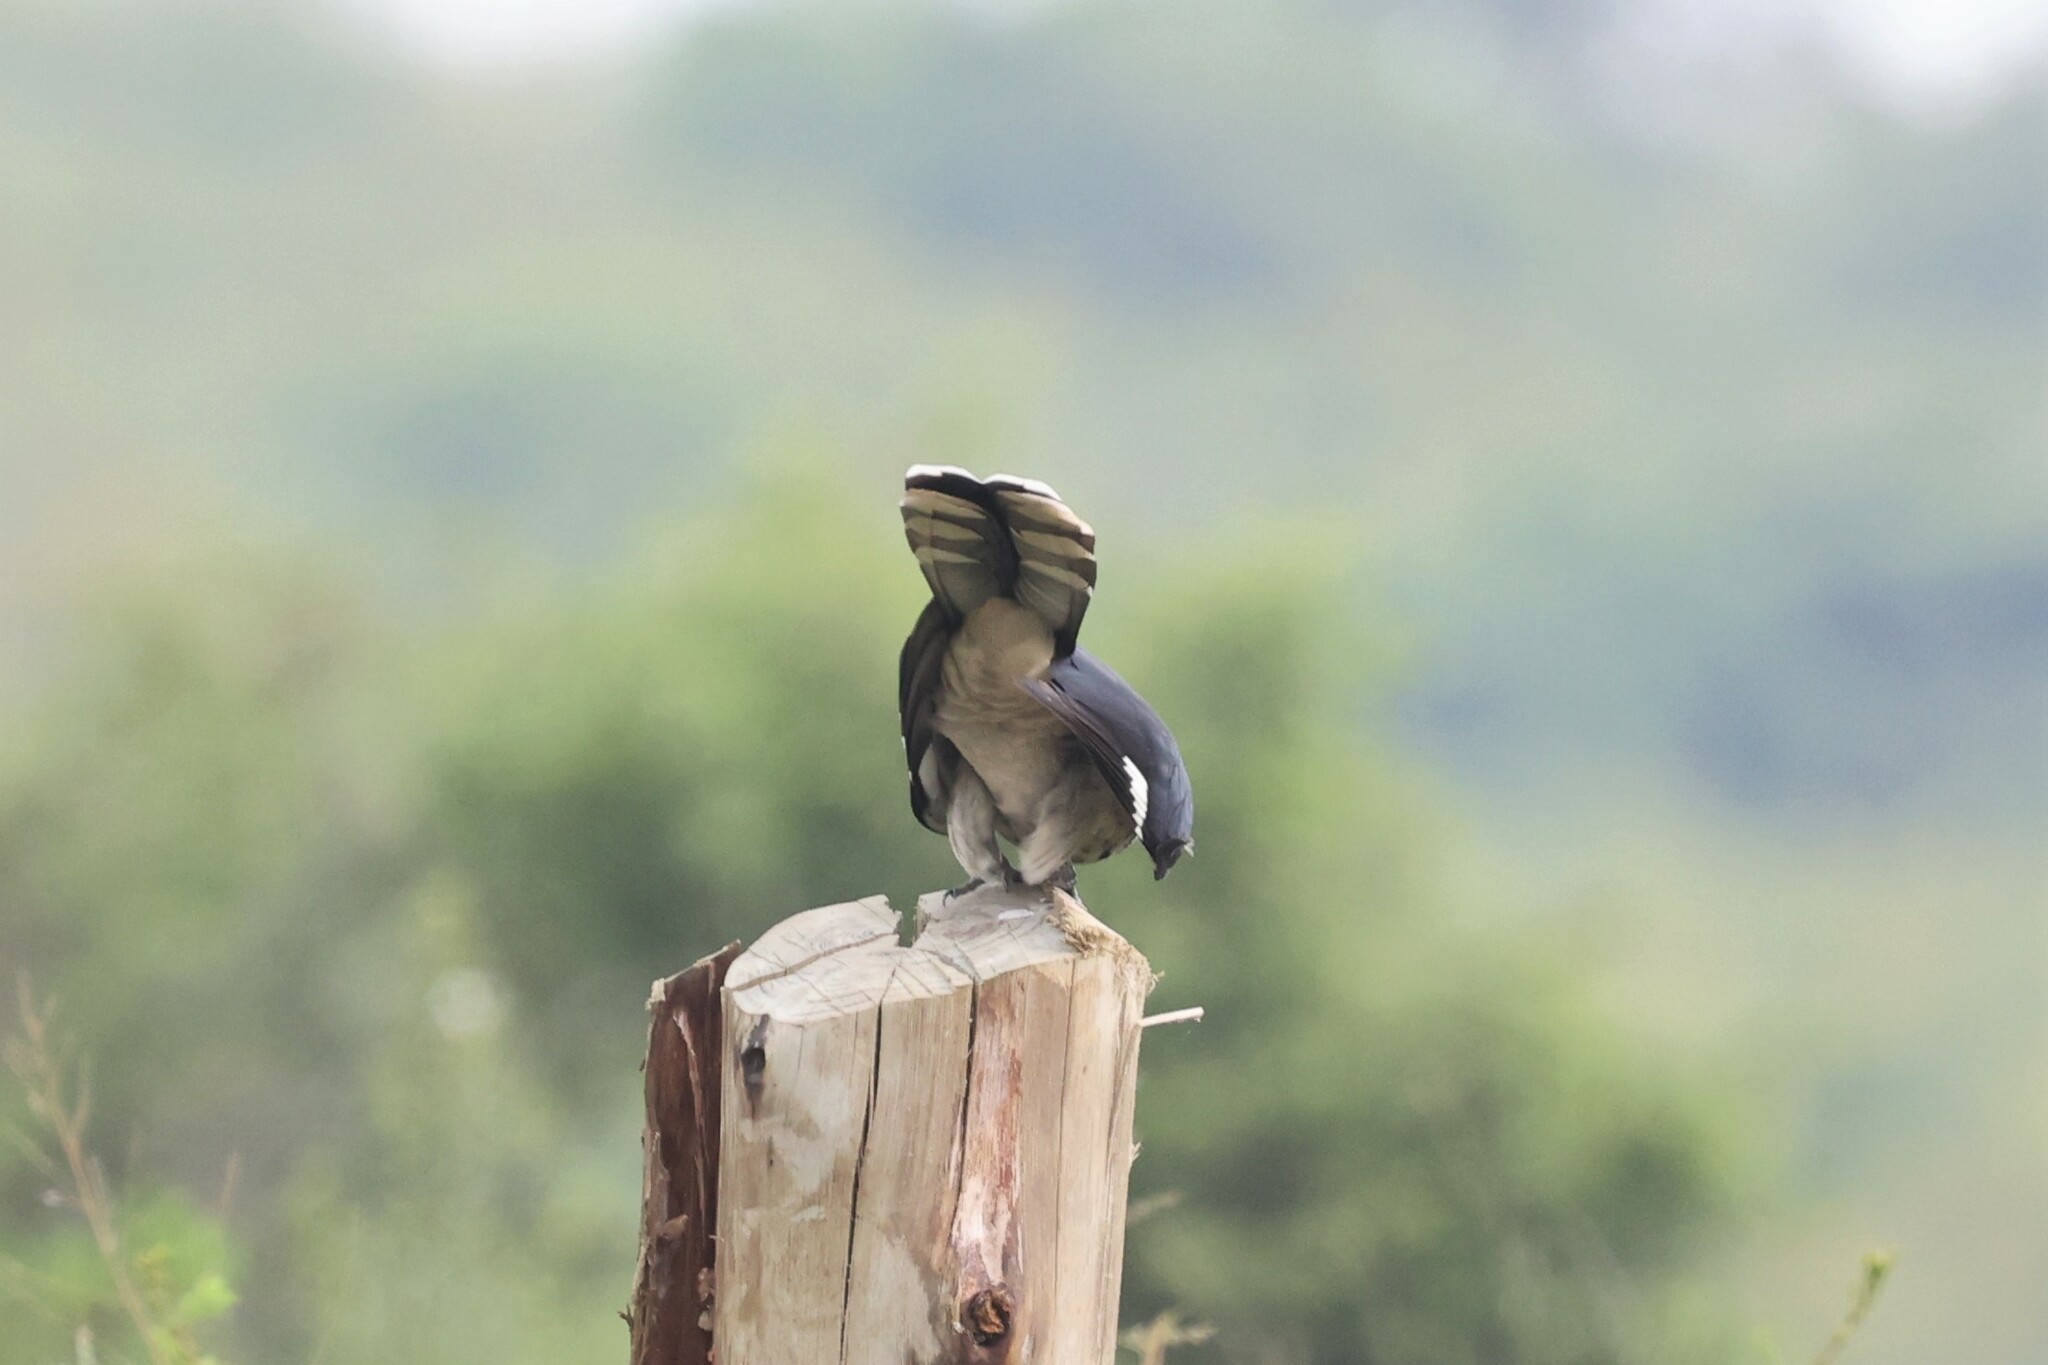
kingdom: Animalia
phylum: Chordata
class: Aves
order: Cuculiformes
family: Cuculidae
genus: Clamator
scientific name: Clamator levaillantii
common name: Levaillant's cuckoo
